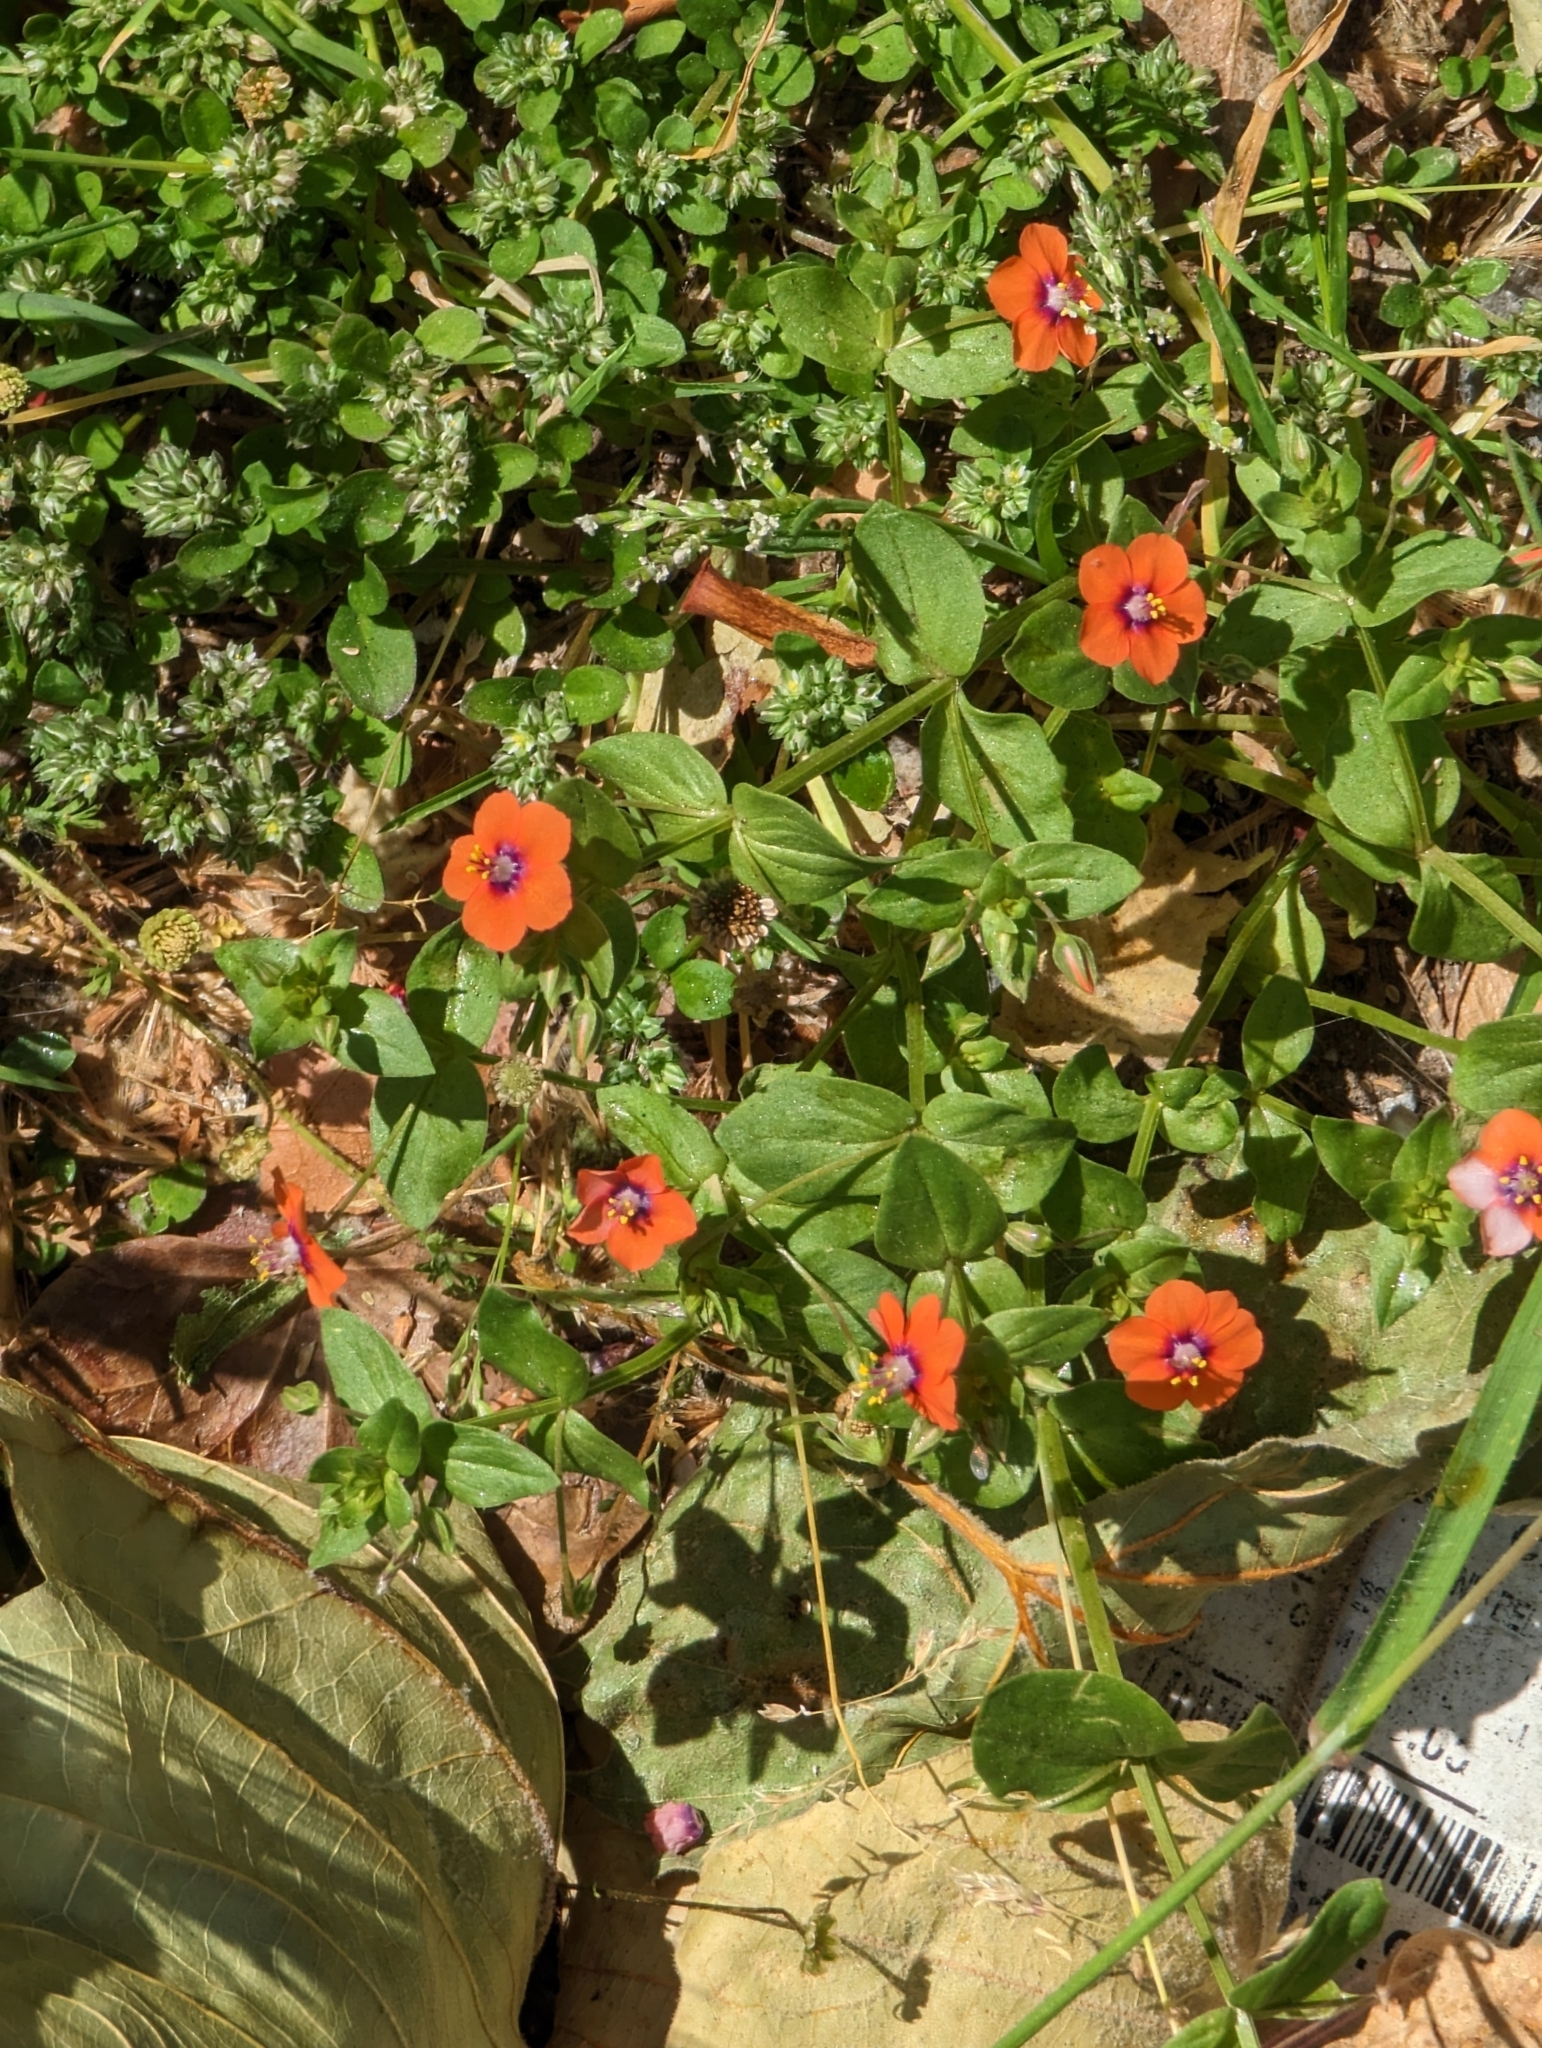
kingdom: Plantae
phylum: Tracheophyta
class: Magnoliopsida
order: Ericales
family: Primulaceae
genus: Lysimachia
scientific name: Lysimachia arvensis
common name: Scarlet pimpernel
